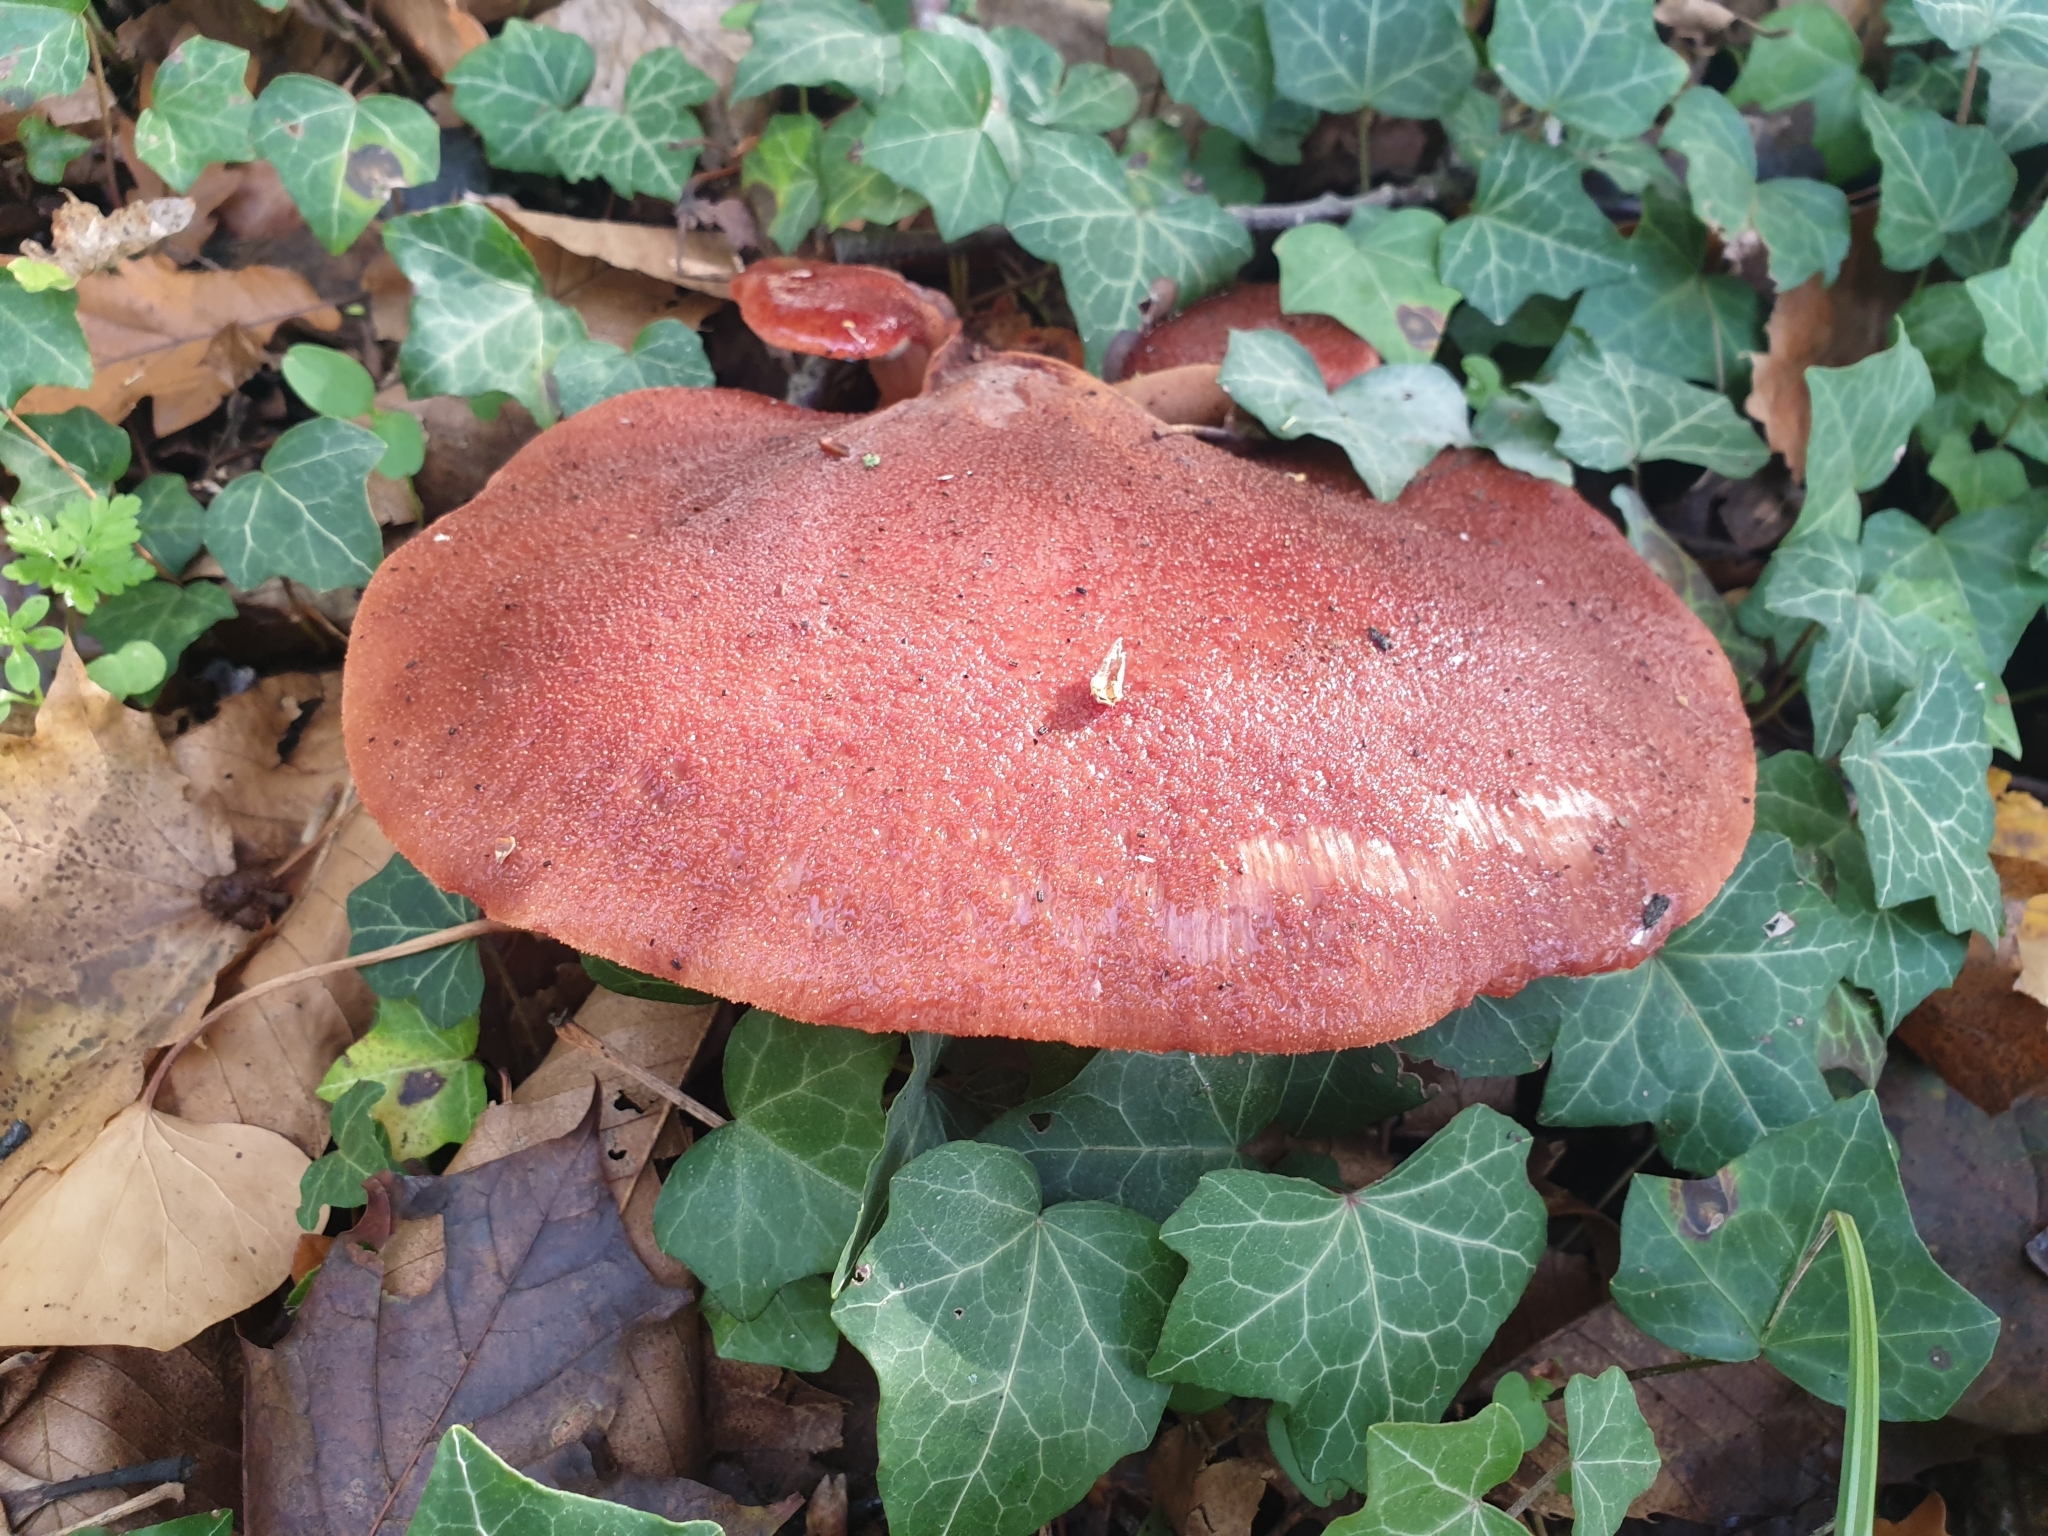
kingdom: Fungi
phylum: Basidiomycota
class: Agaricomycetes
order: Agaricales
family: Fistulinaceae
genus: Fistulina
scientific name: Fistulina hepatica
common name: Beef-steak fungus
